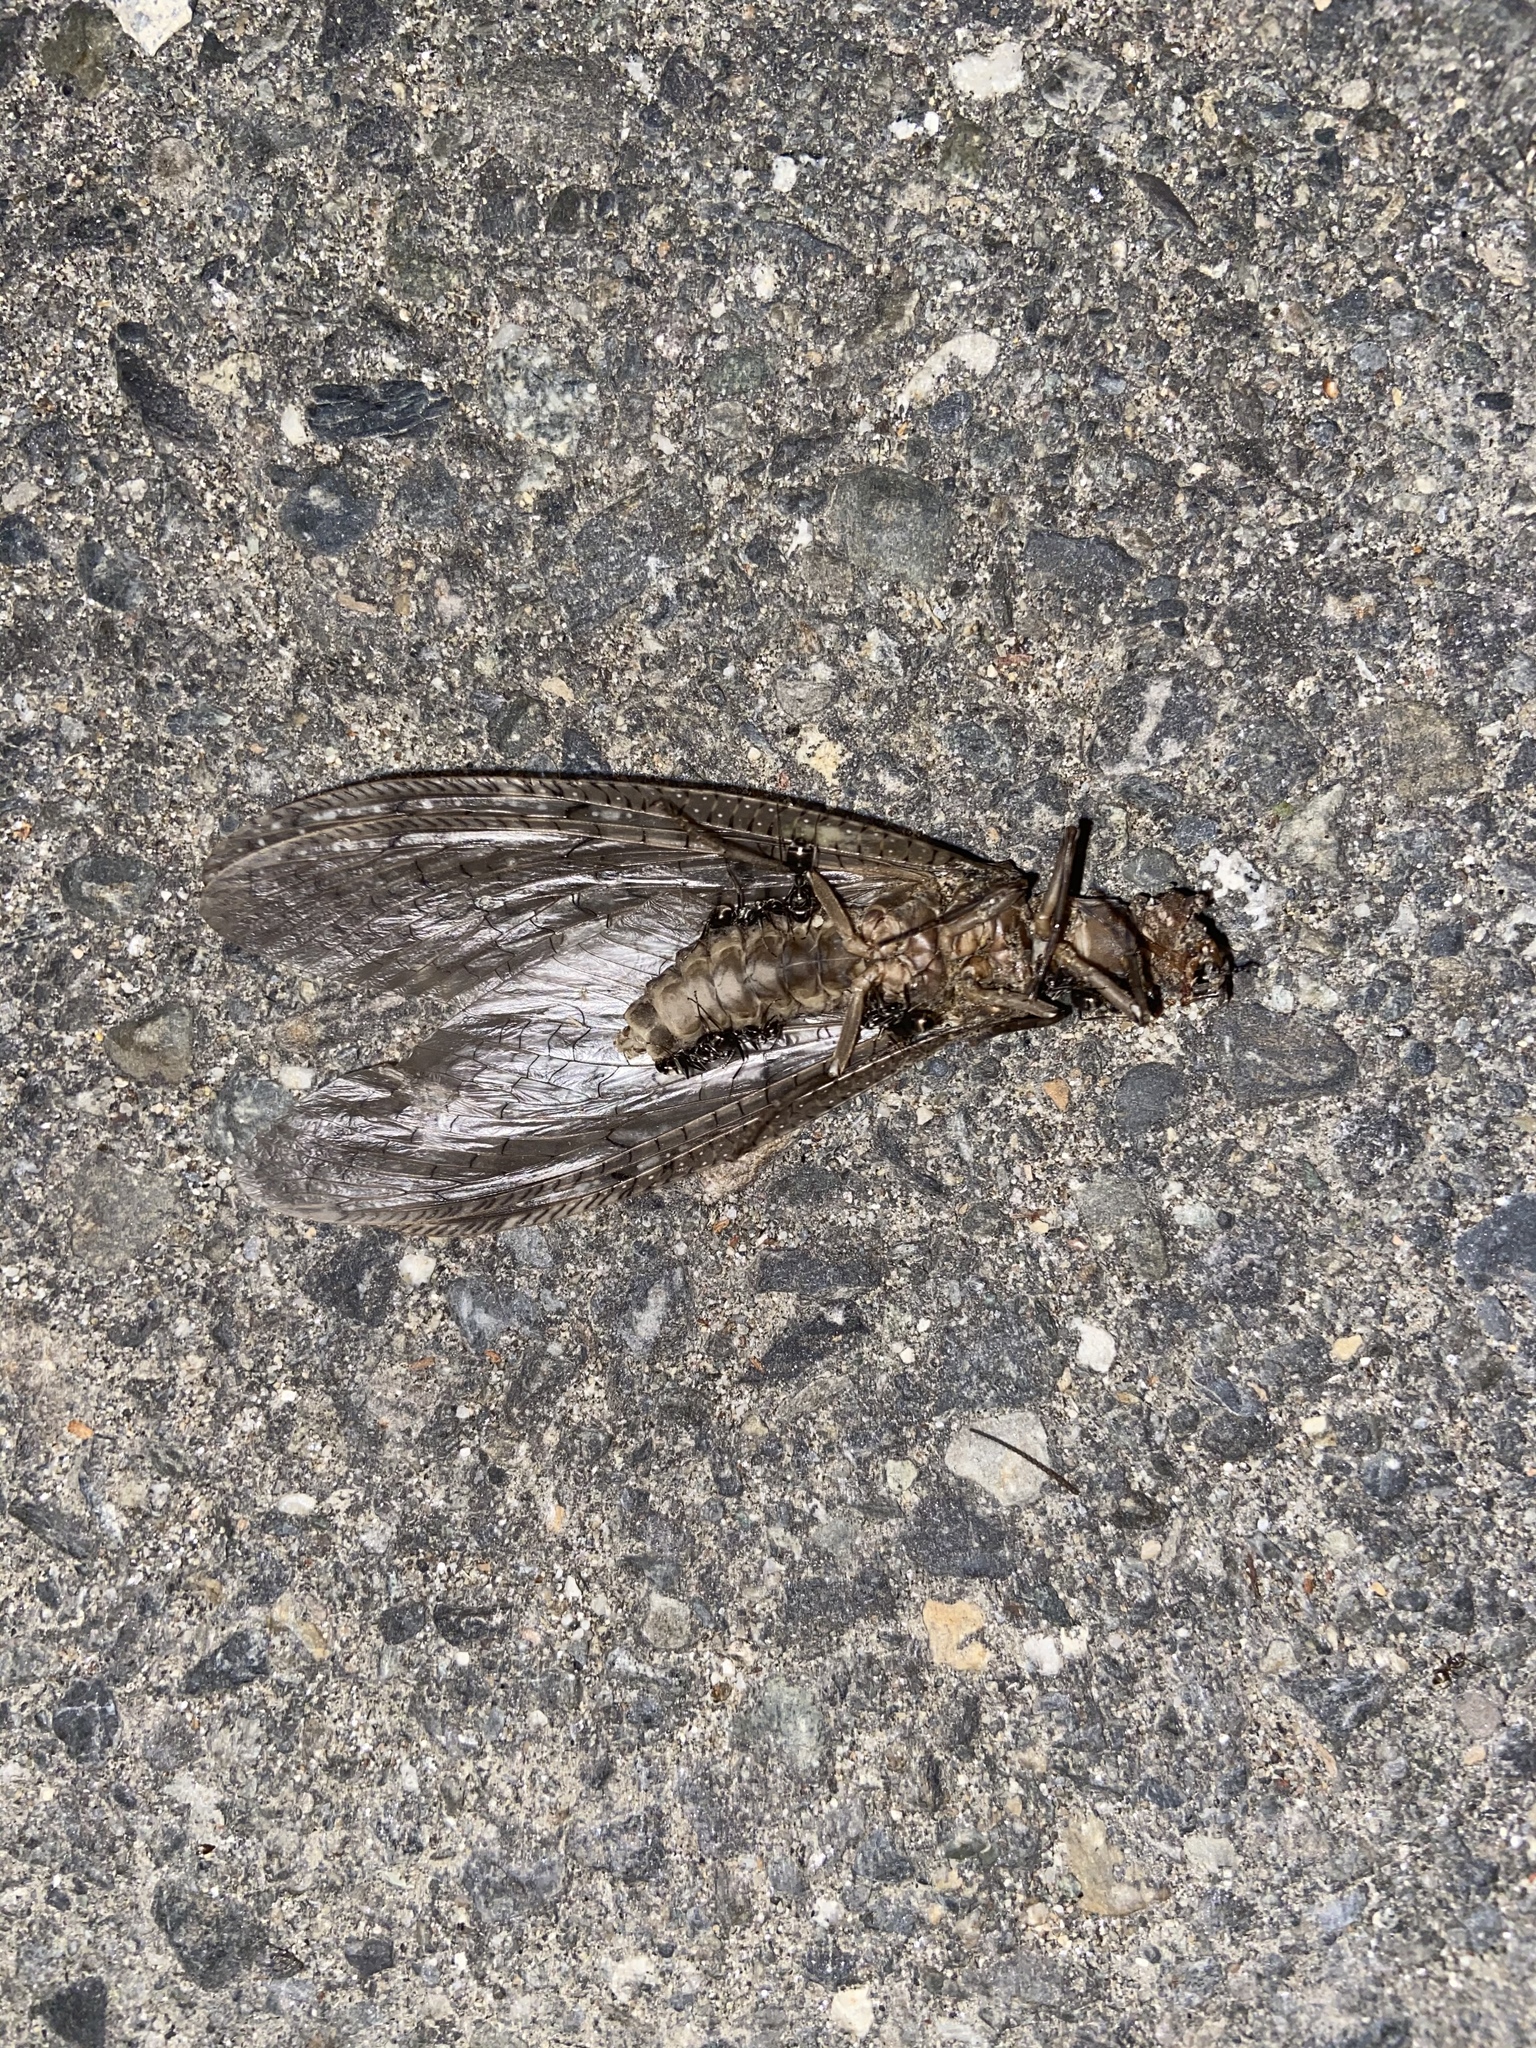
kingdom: Animalia
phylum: Arthropoda
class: Insecta
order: Megaloptera
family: Corydalidae
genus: Corydalus
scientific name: Corydalus cornutus
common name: Dobsonfly
